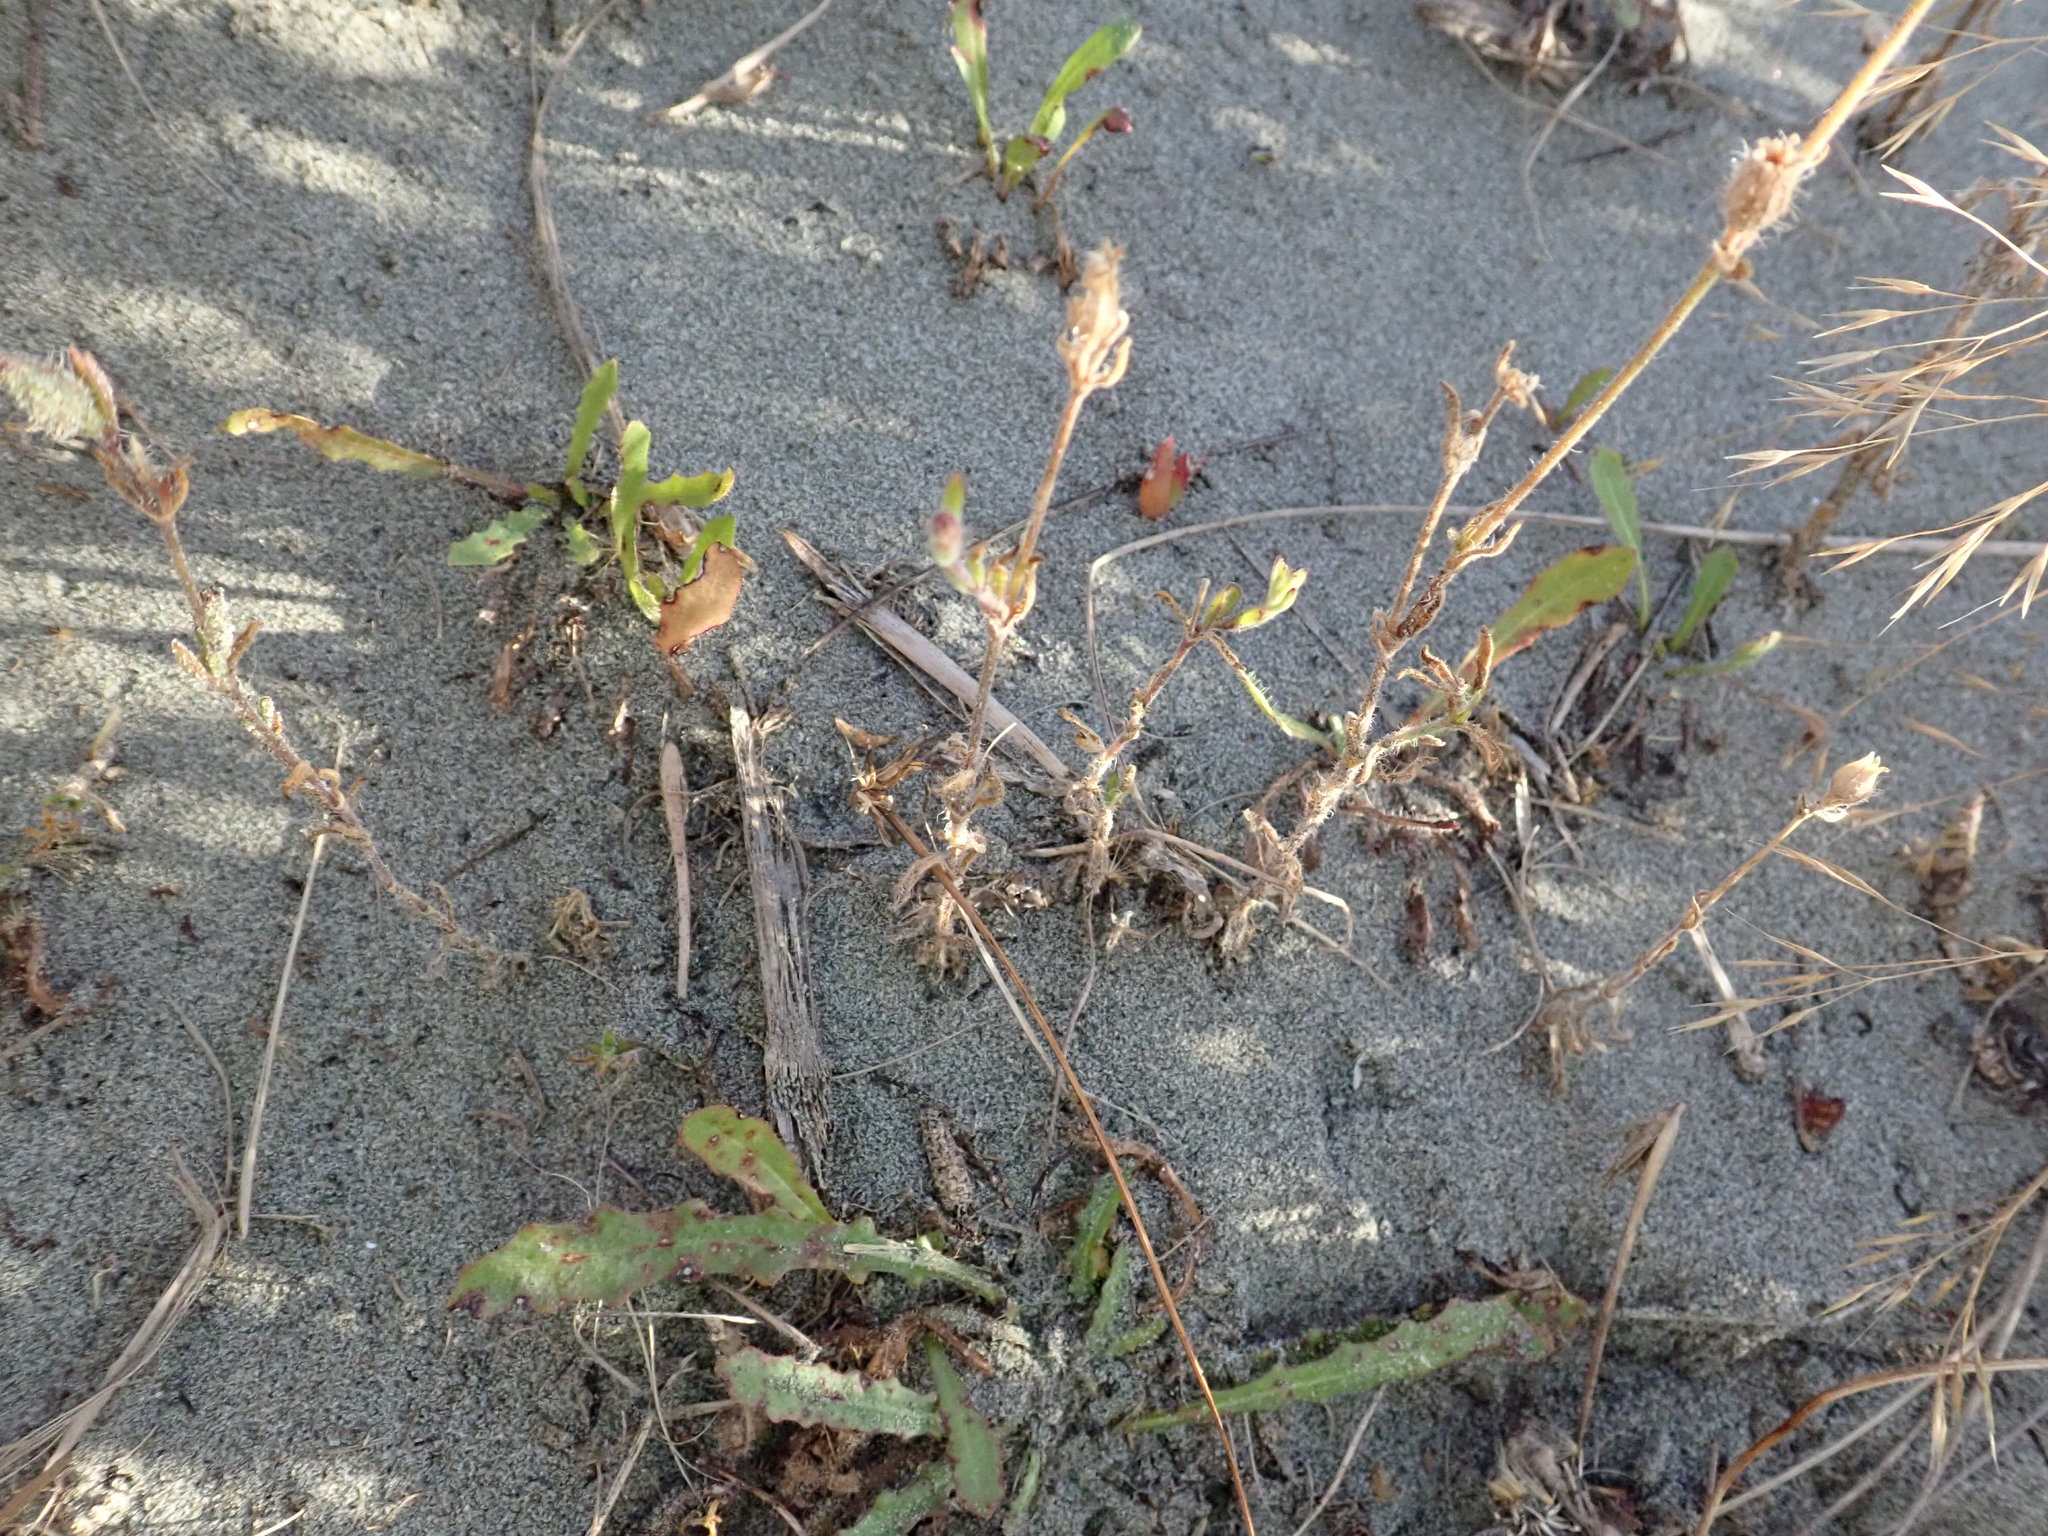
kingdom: Plantae
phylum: Tracheophyta
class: Magnoliopsida
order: Caryophyllales
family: Caryophyllaceae
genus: Silene
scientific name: Silene gallica
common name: Small-flowered catchfly
